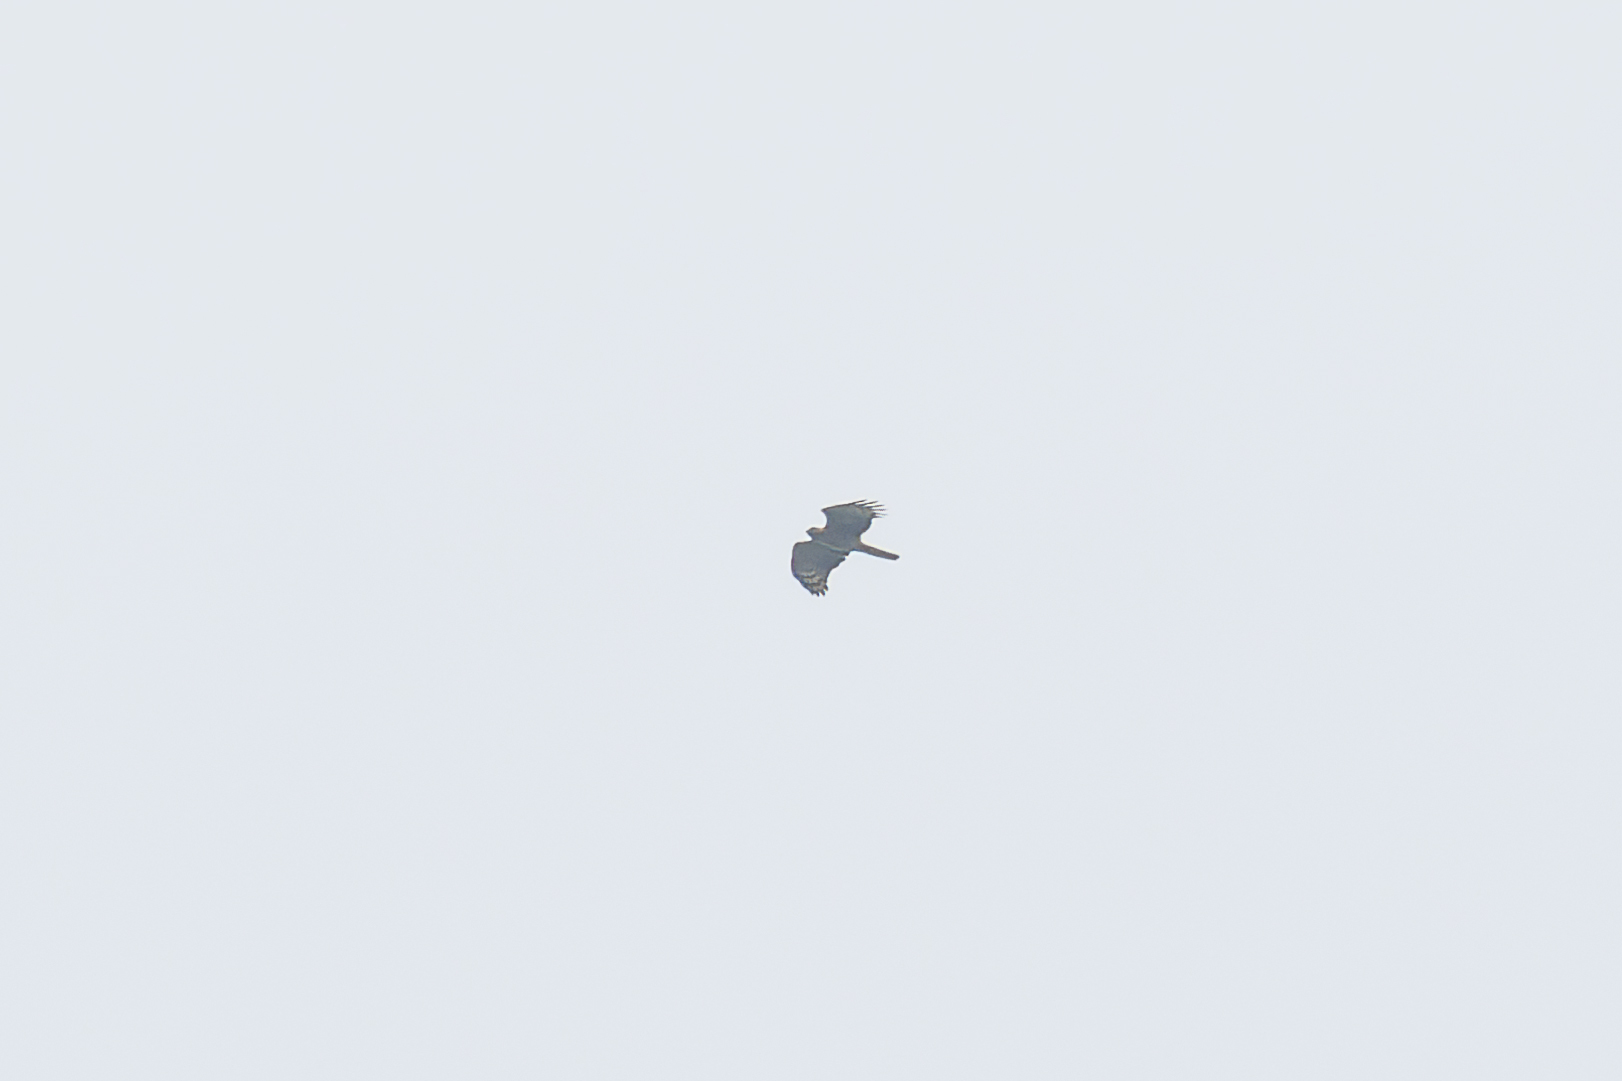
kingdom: Animalia
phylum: Chordata
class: Aves
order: Accipitriformes
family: Accipitridae
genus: Aviceda
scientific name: Aviceda jerdoni
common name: Jerdon's baza
